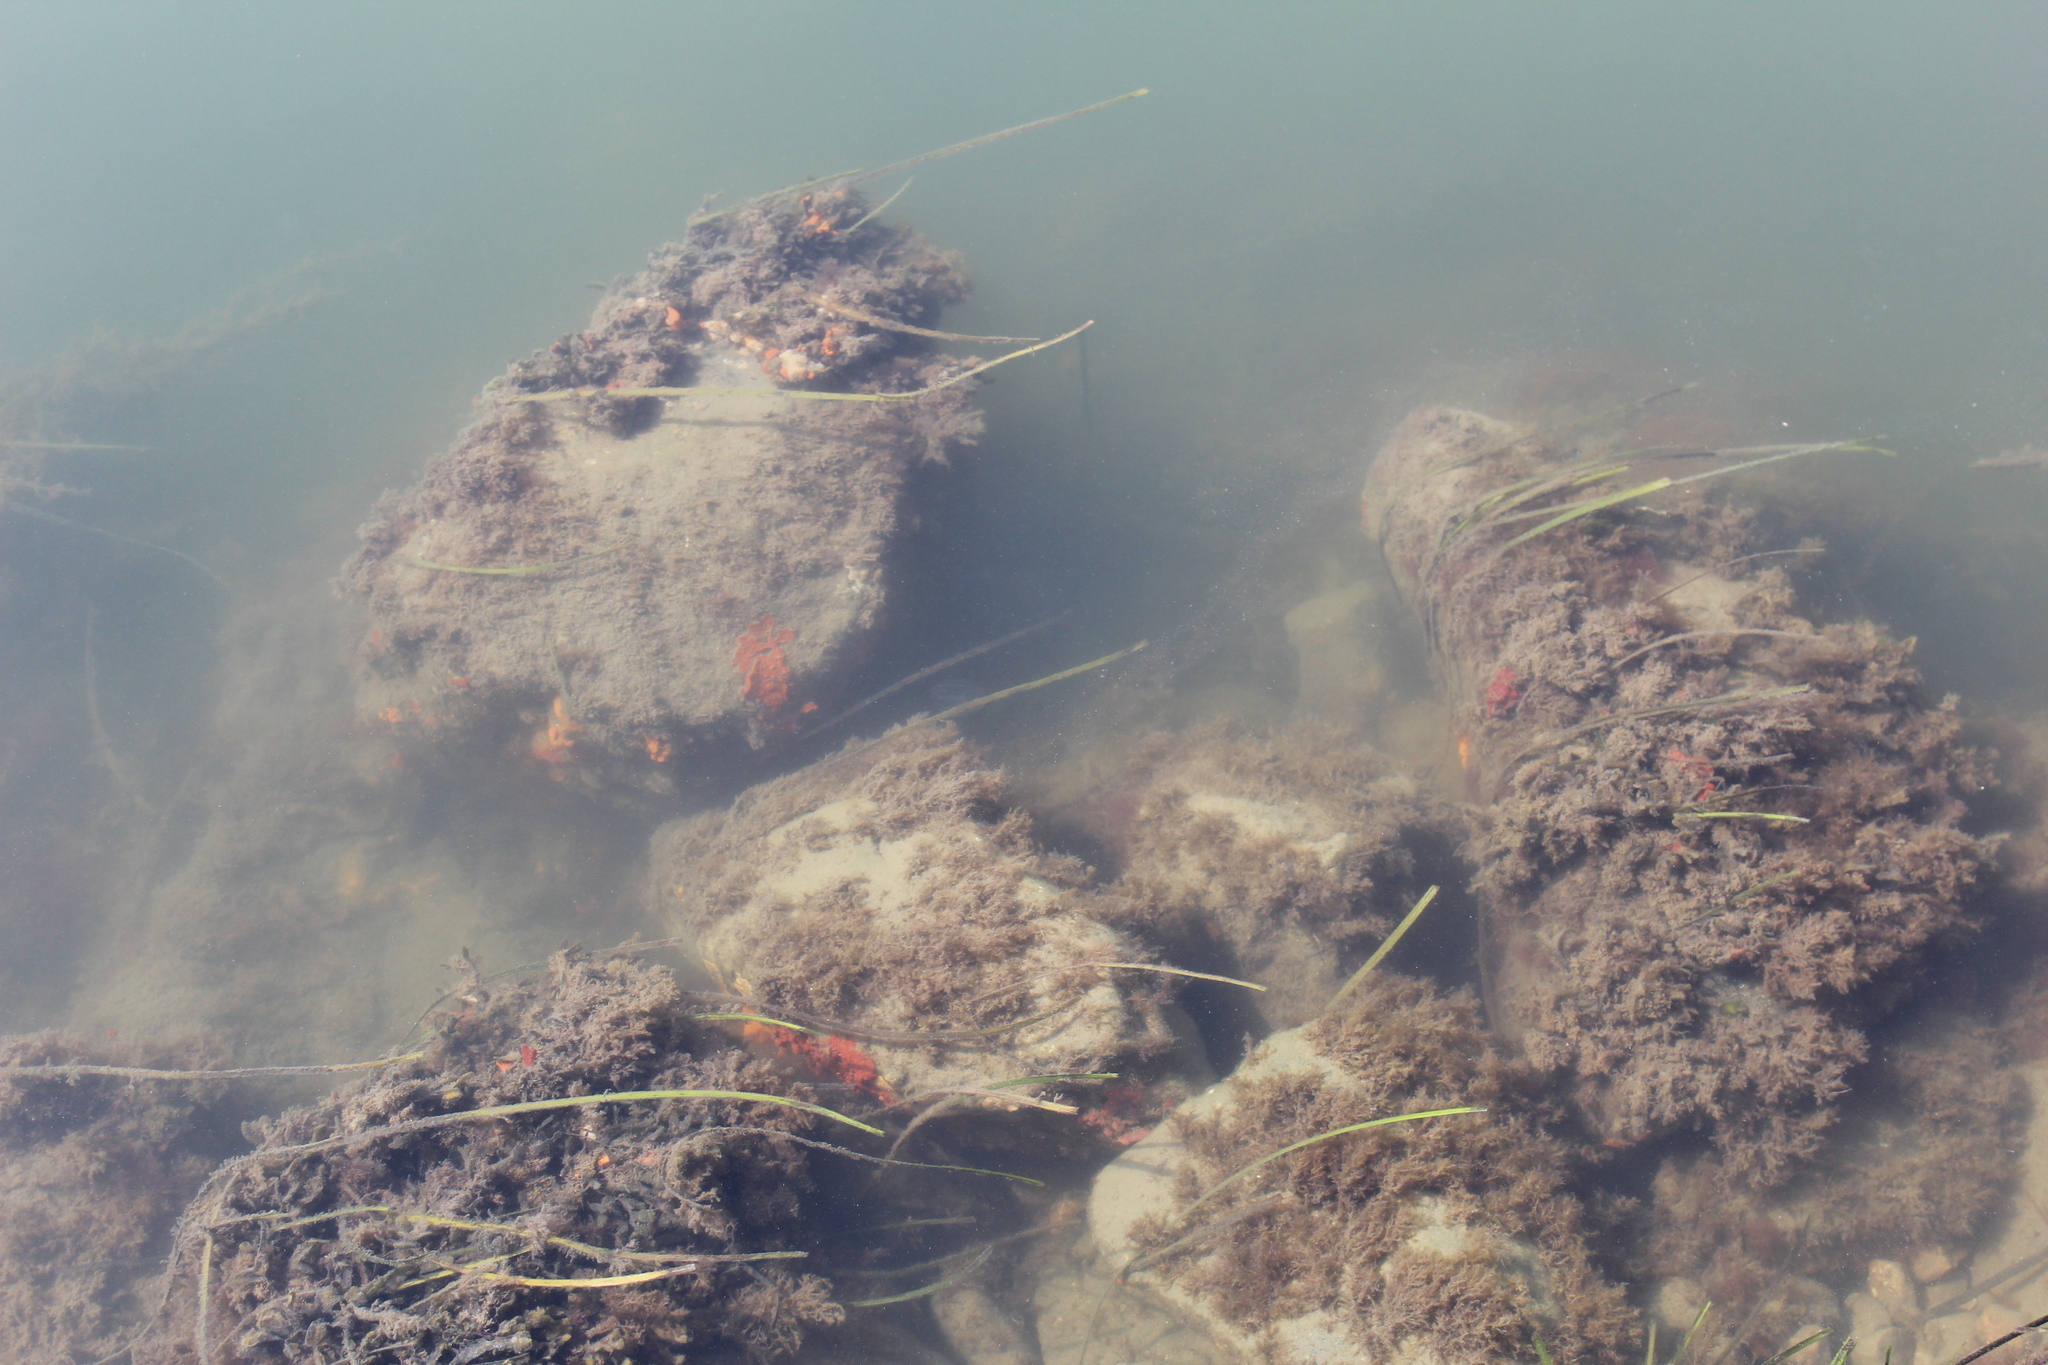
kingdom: Animalia
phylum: Chordata
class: Ascidiacea
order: Stolidobranchia
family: Styelidae
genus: Botrylloides
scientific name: Botrylloides violaceus
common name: Colonial sea squirt
